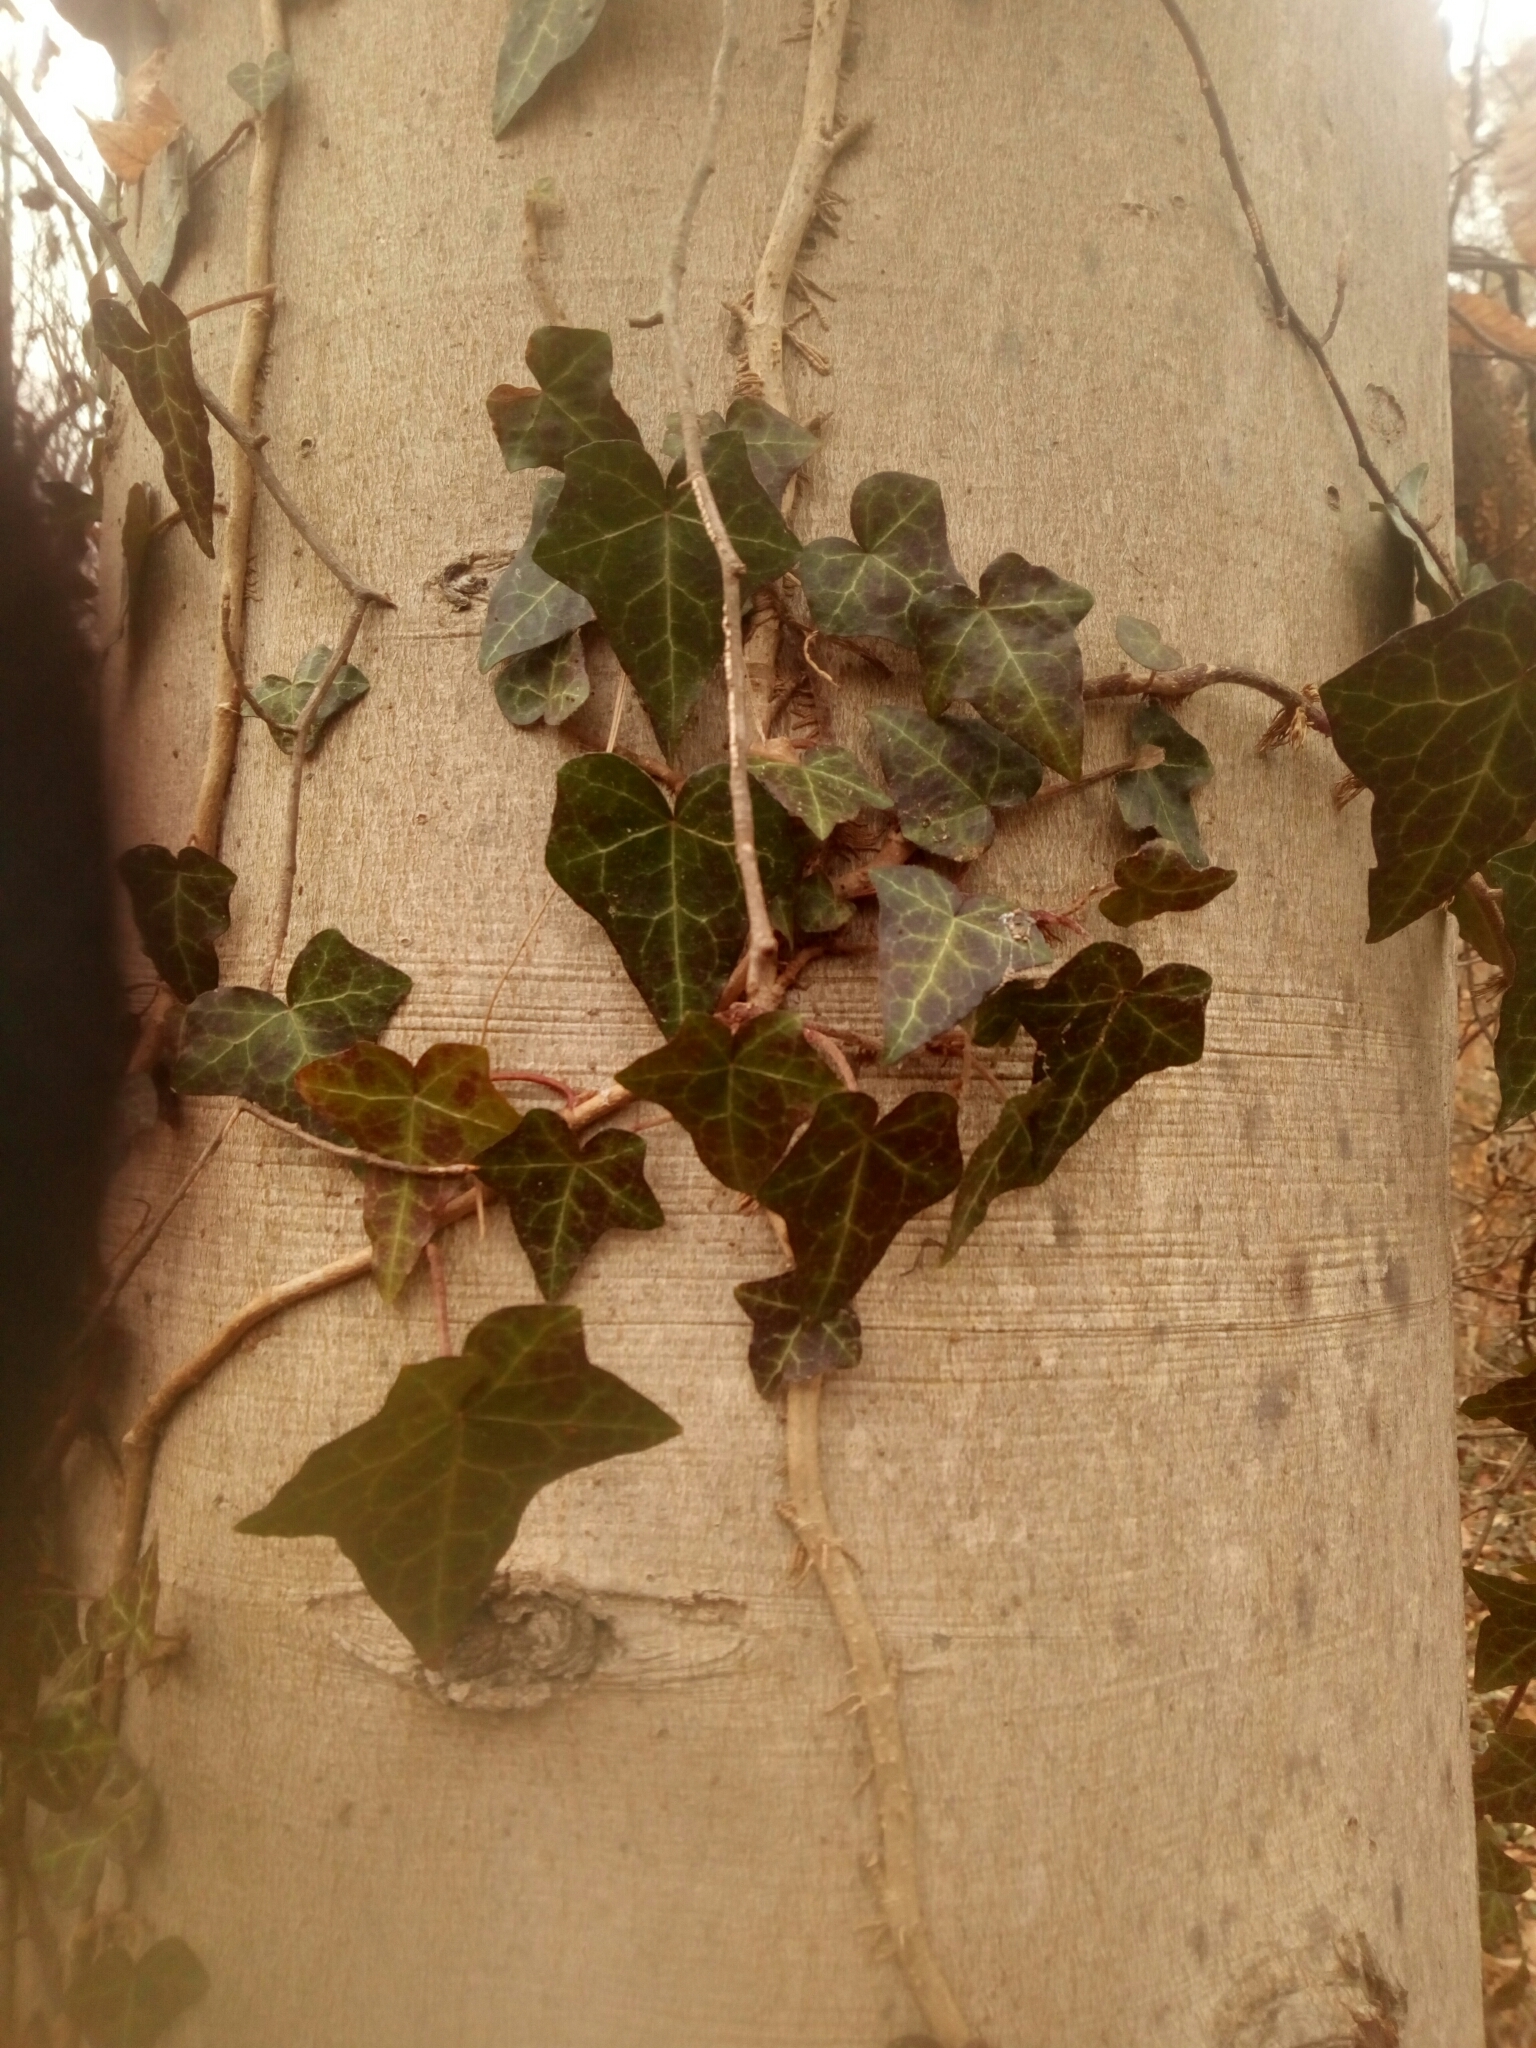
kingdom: Plantae
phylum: Tracheophyta
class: Magnoliopsida
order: Apiales
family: Araliaceae
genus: Hedera
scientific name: Hedera helix
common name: Ivy
